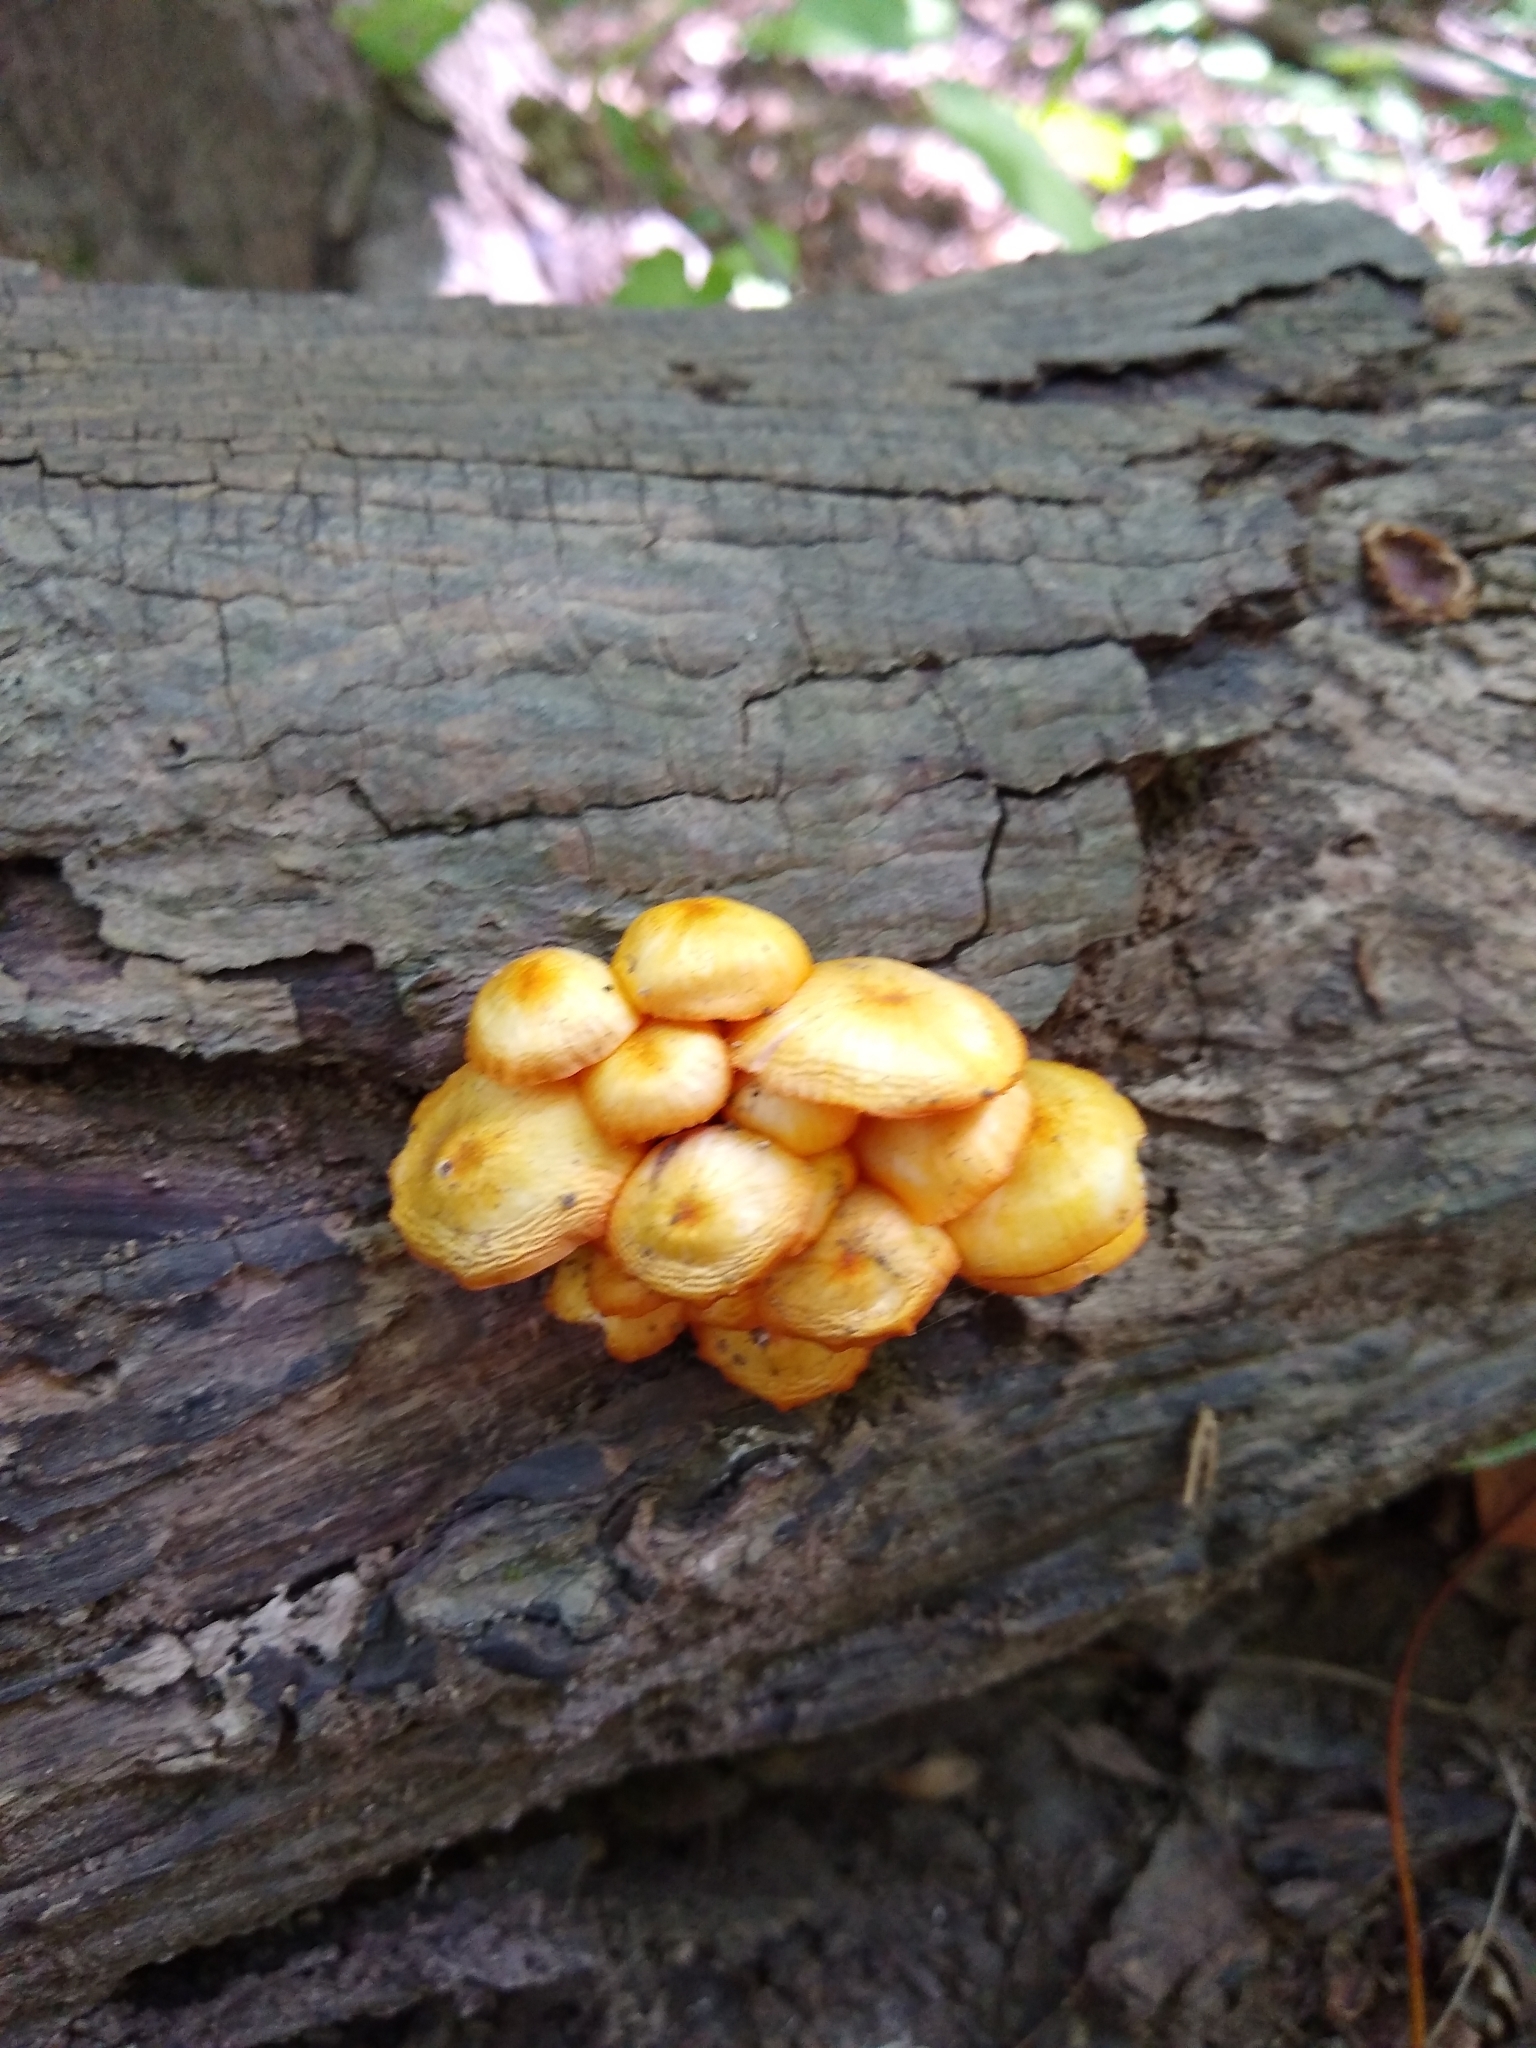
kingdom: Fungi
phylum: Basidiomycota
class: Agaricomycetes
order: Agaricales
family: Mycenaceae
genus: Mycena
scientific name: Mycena leaiana
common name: Orange mycena
